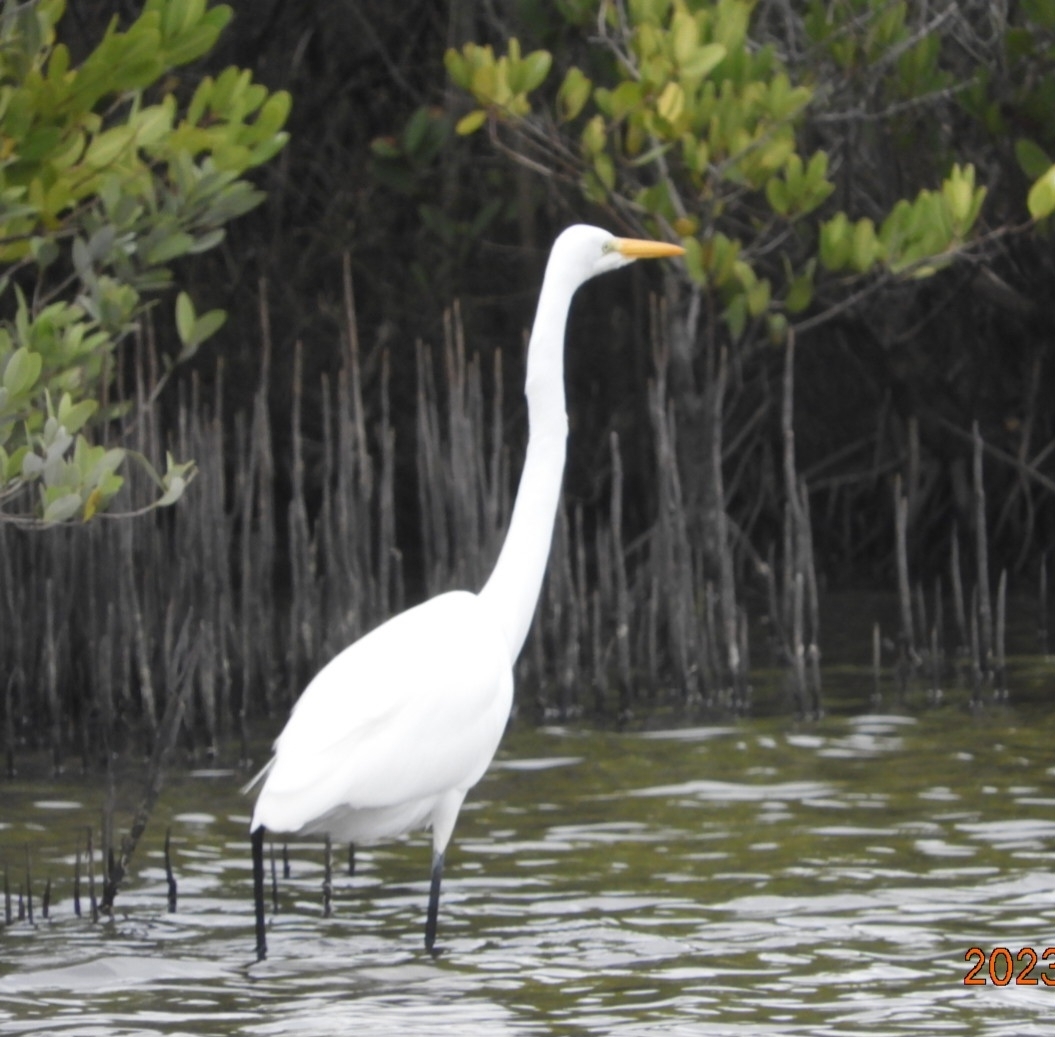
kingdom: Animalia
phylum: Chordata
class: Aves
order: Pelecaniformes
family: Ardeidae
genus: Ardea
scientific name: Ardea alba
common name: Great egret
